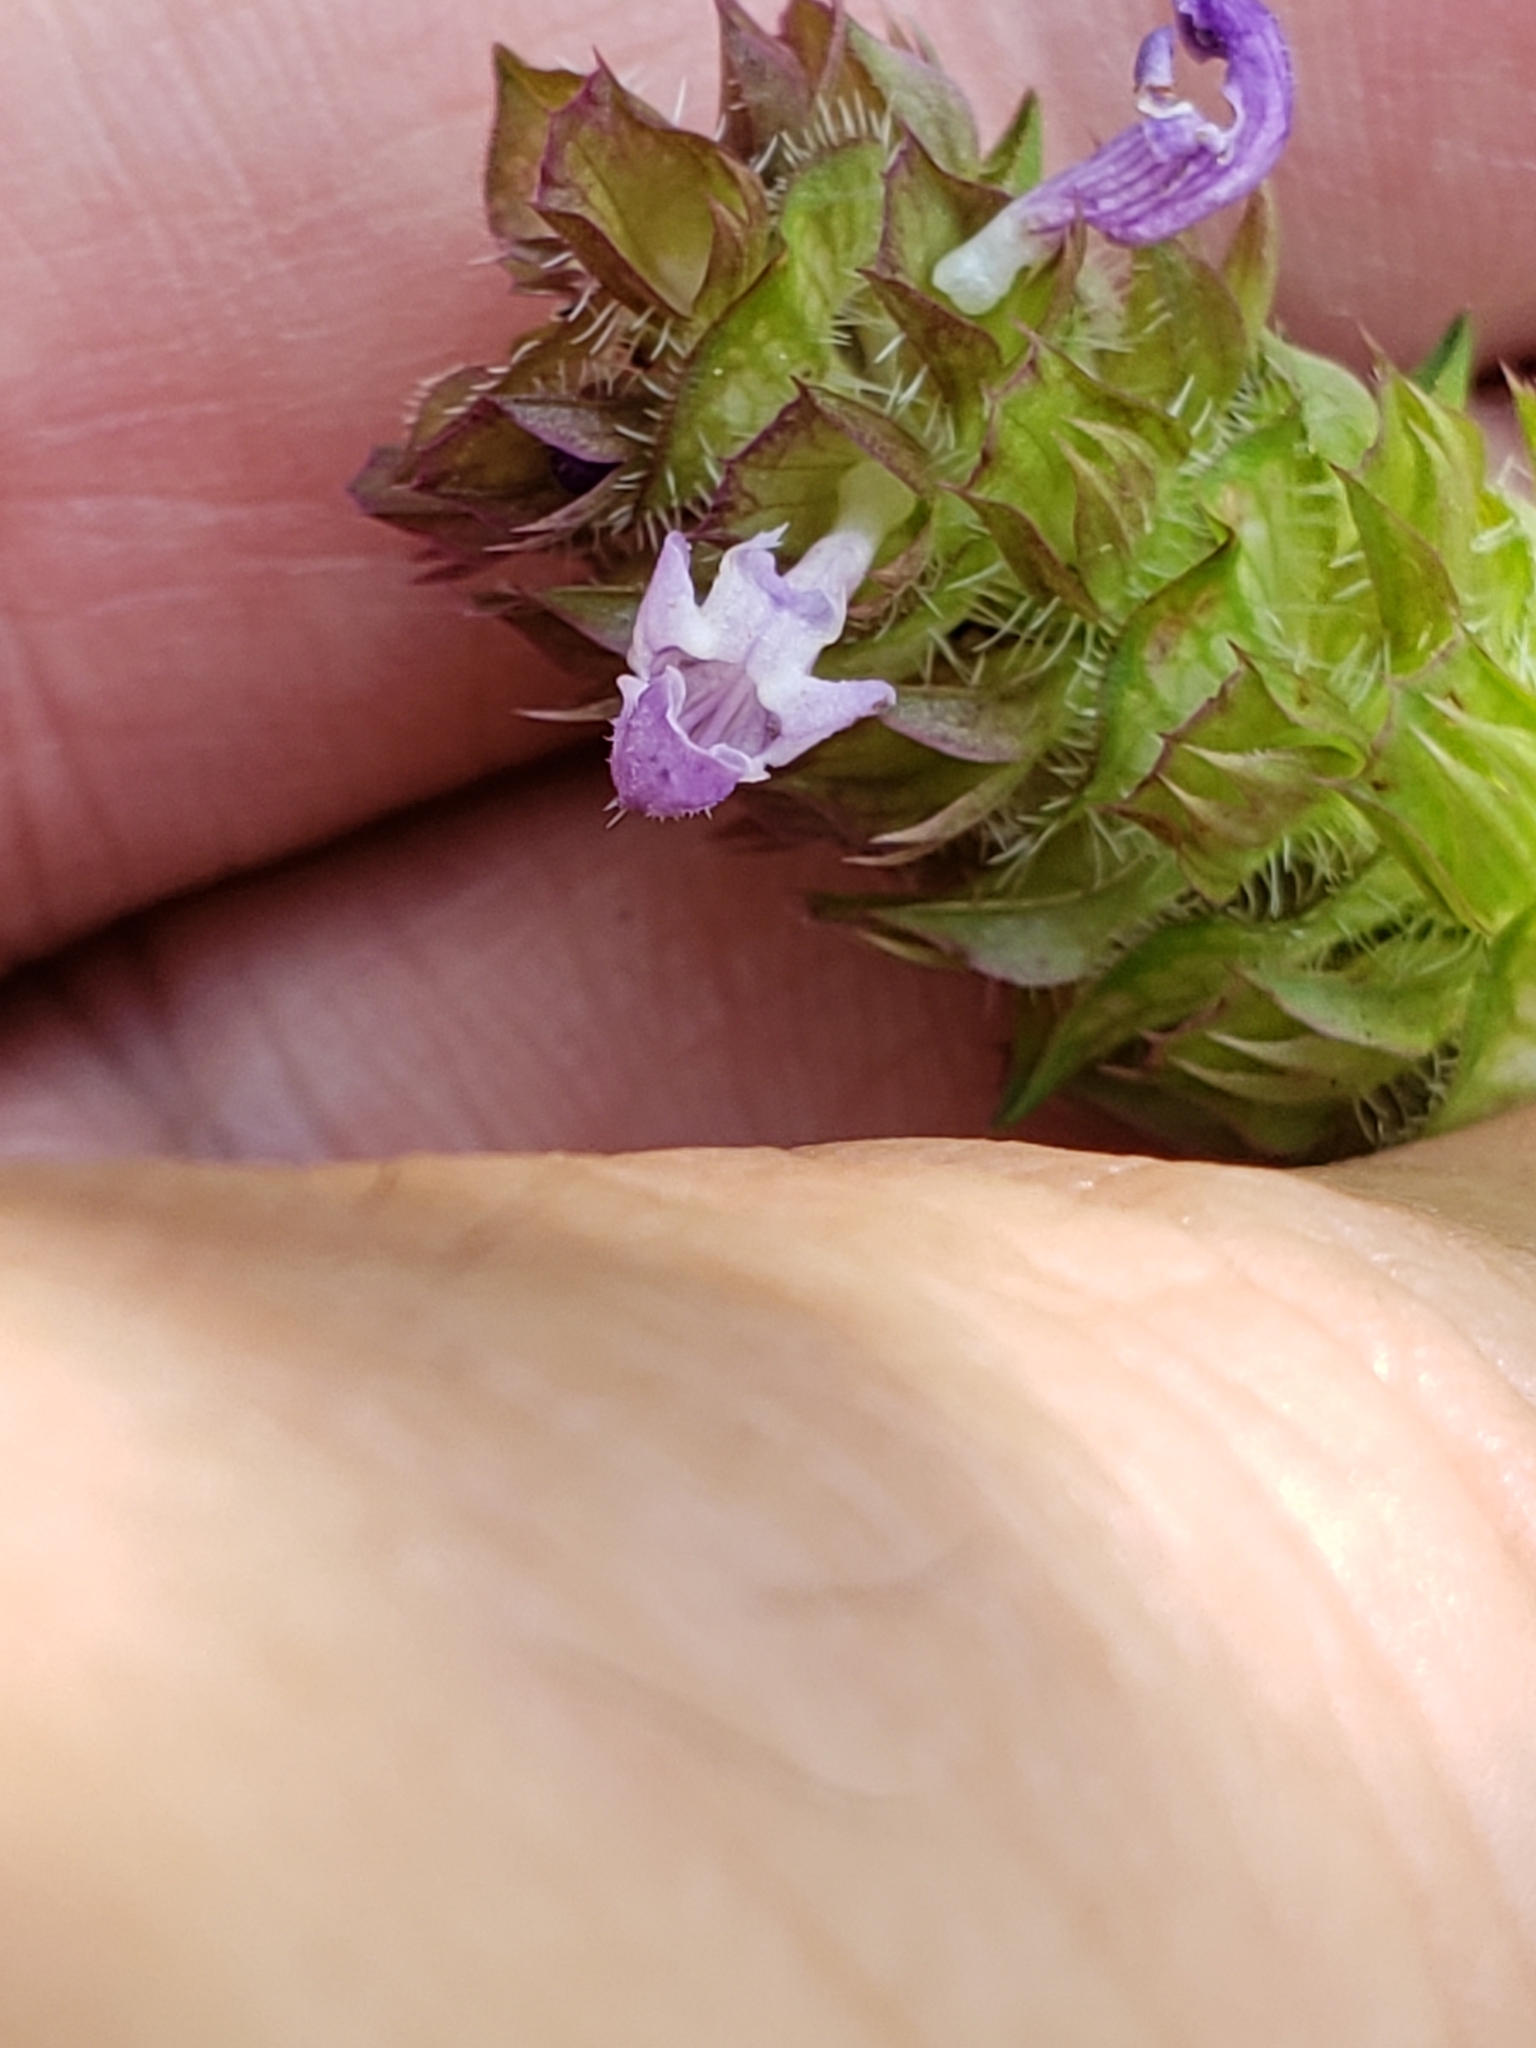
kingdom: Plantae
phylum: Tracheophyta
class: Magnoliopsida
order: Lamiales
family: Lamiaceae
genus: Prunella
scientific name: Prunella vulgaris
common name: Heal-all
